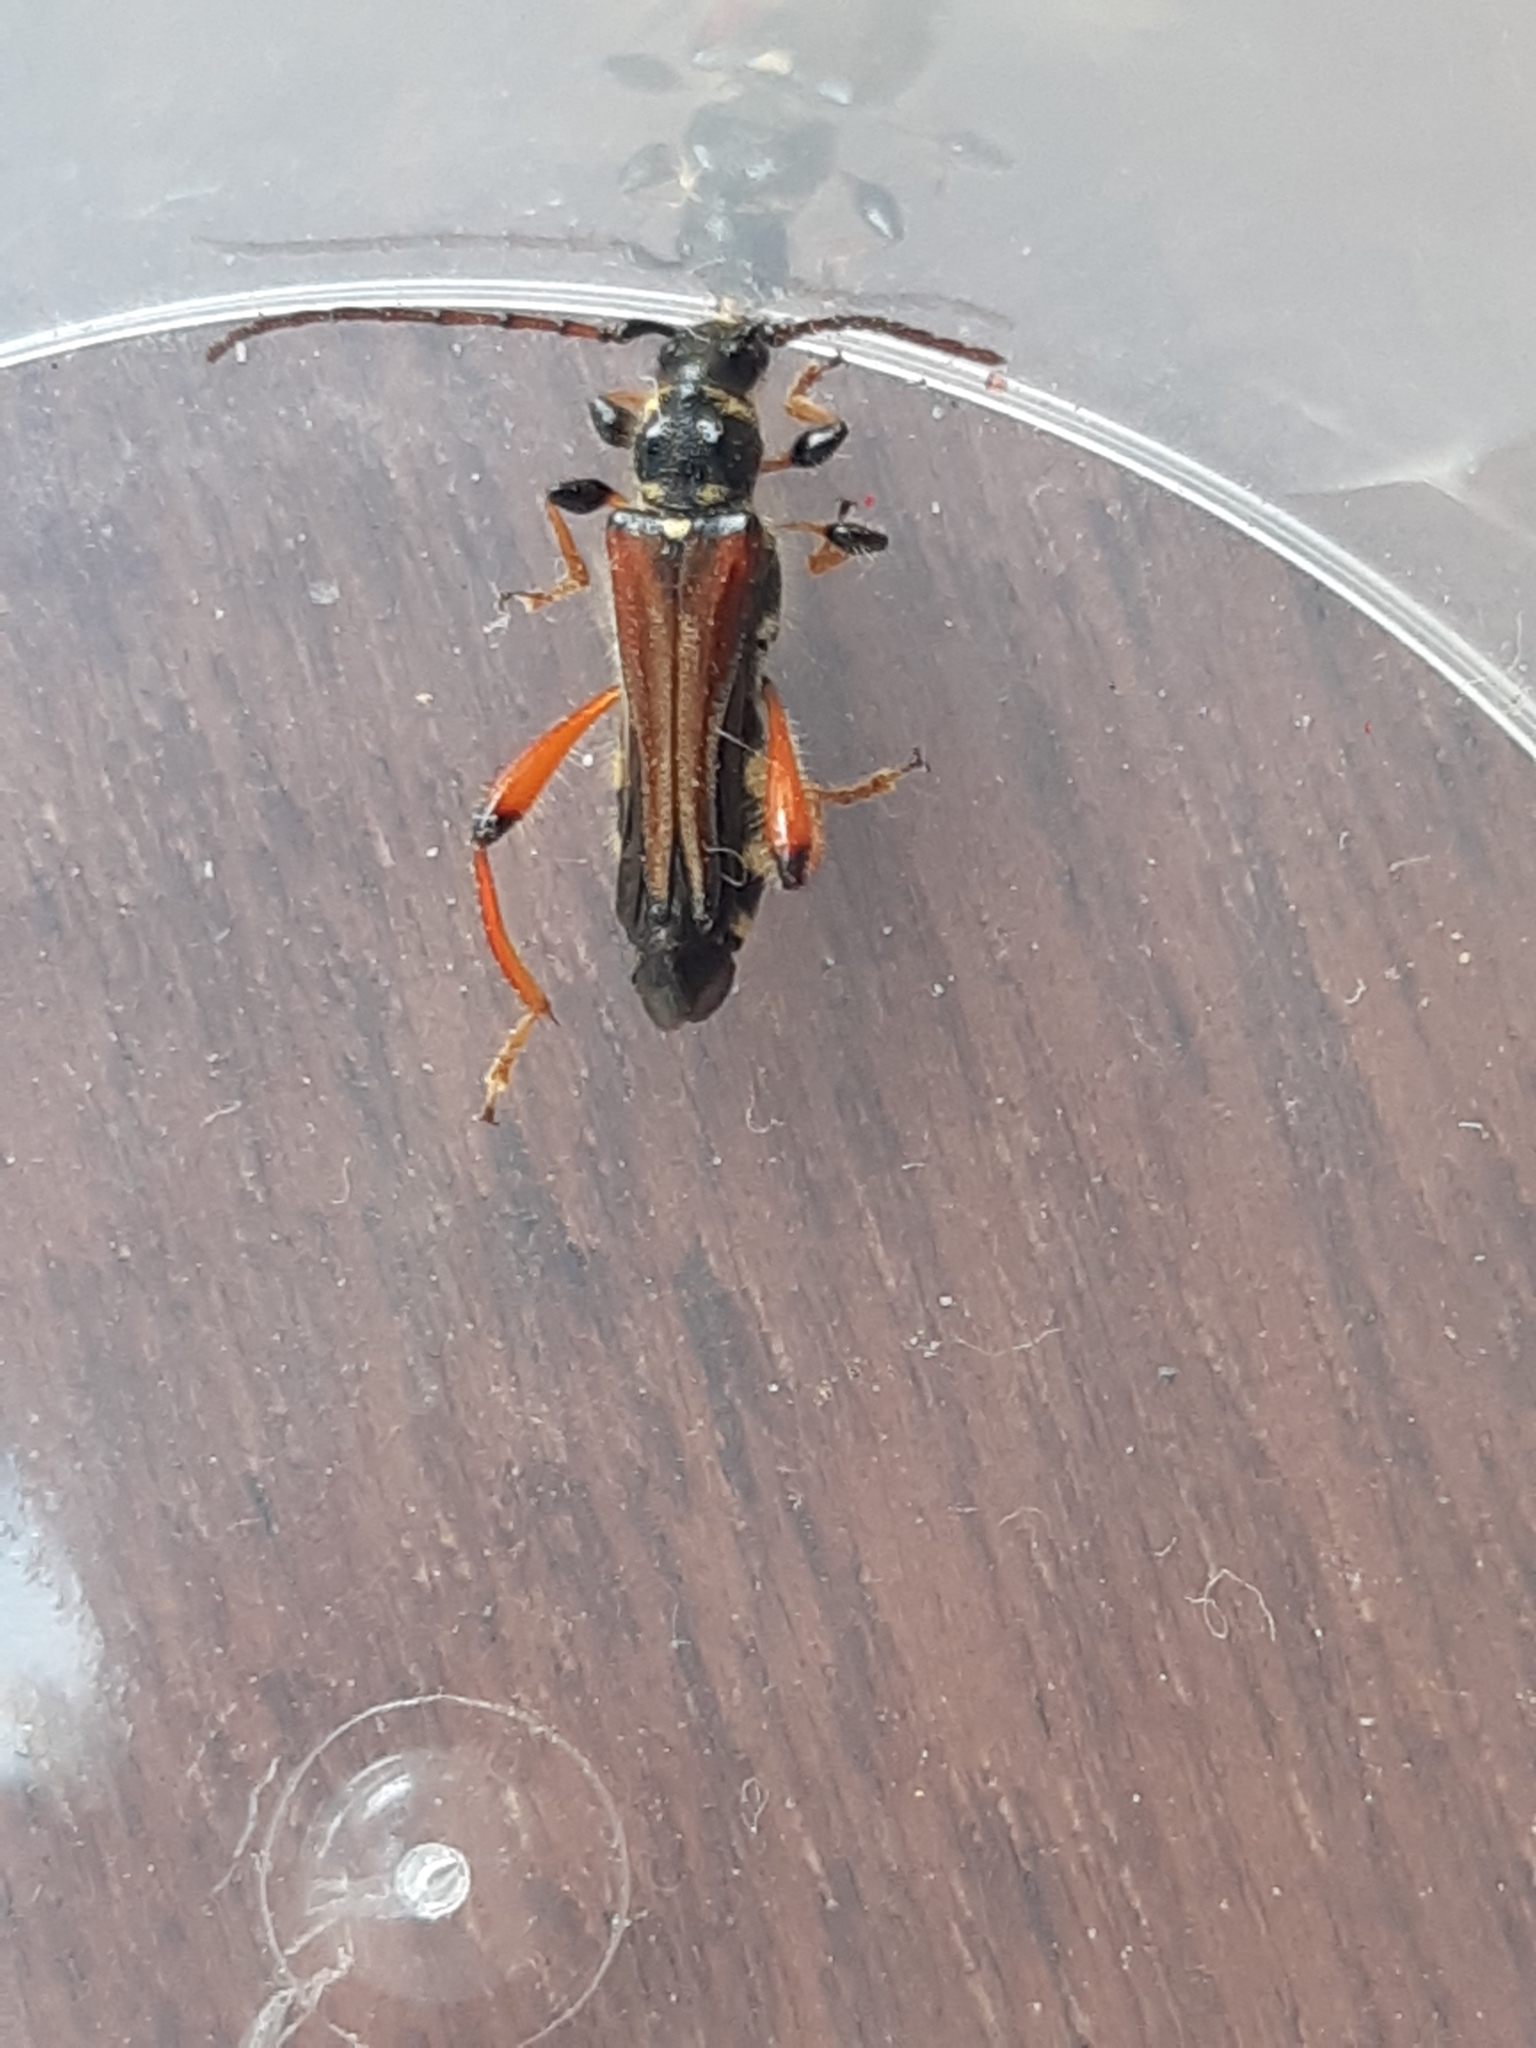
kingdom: Animalia
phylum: Arthropoda
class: Insecta
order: Coleoptera
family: Cerambycidae
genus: Stenopterus
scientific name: Stenopterus rufus
